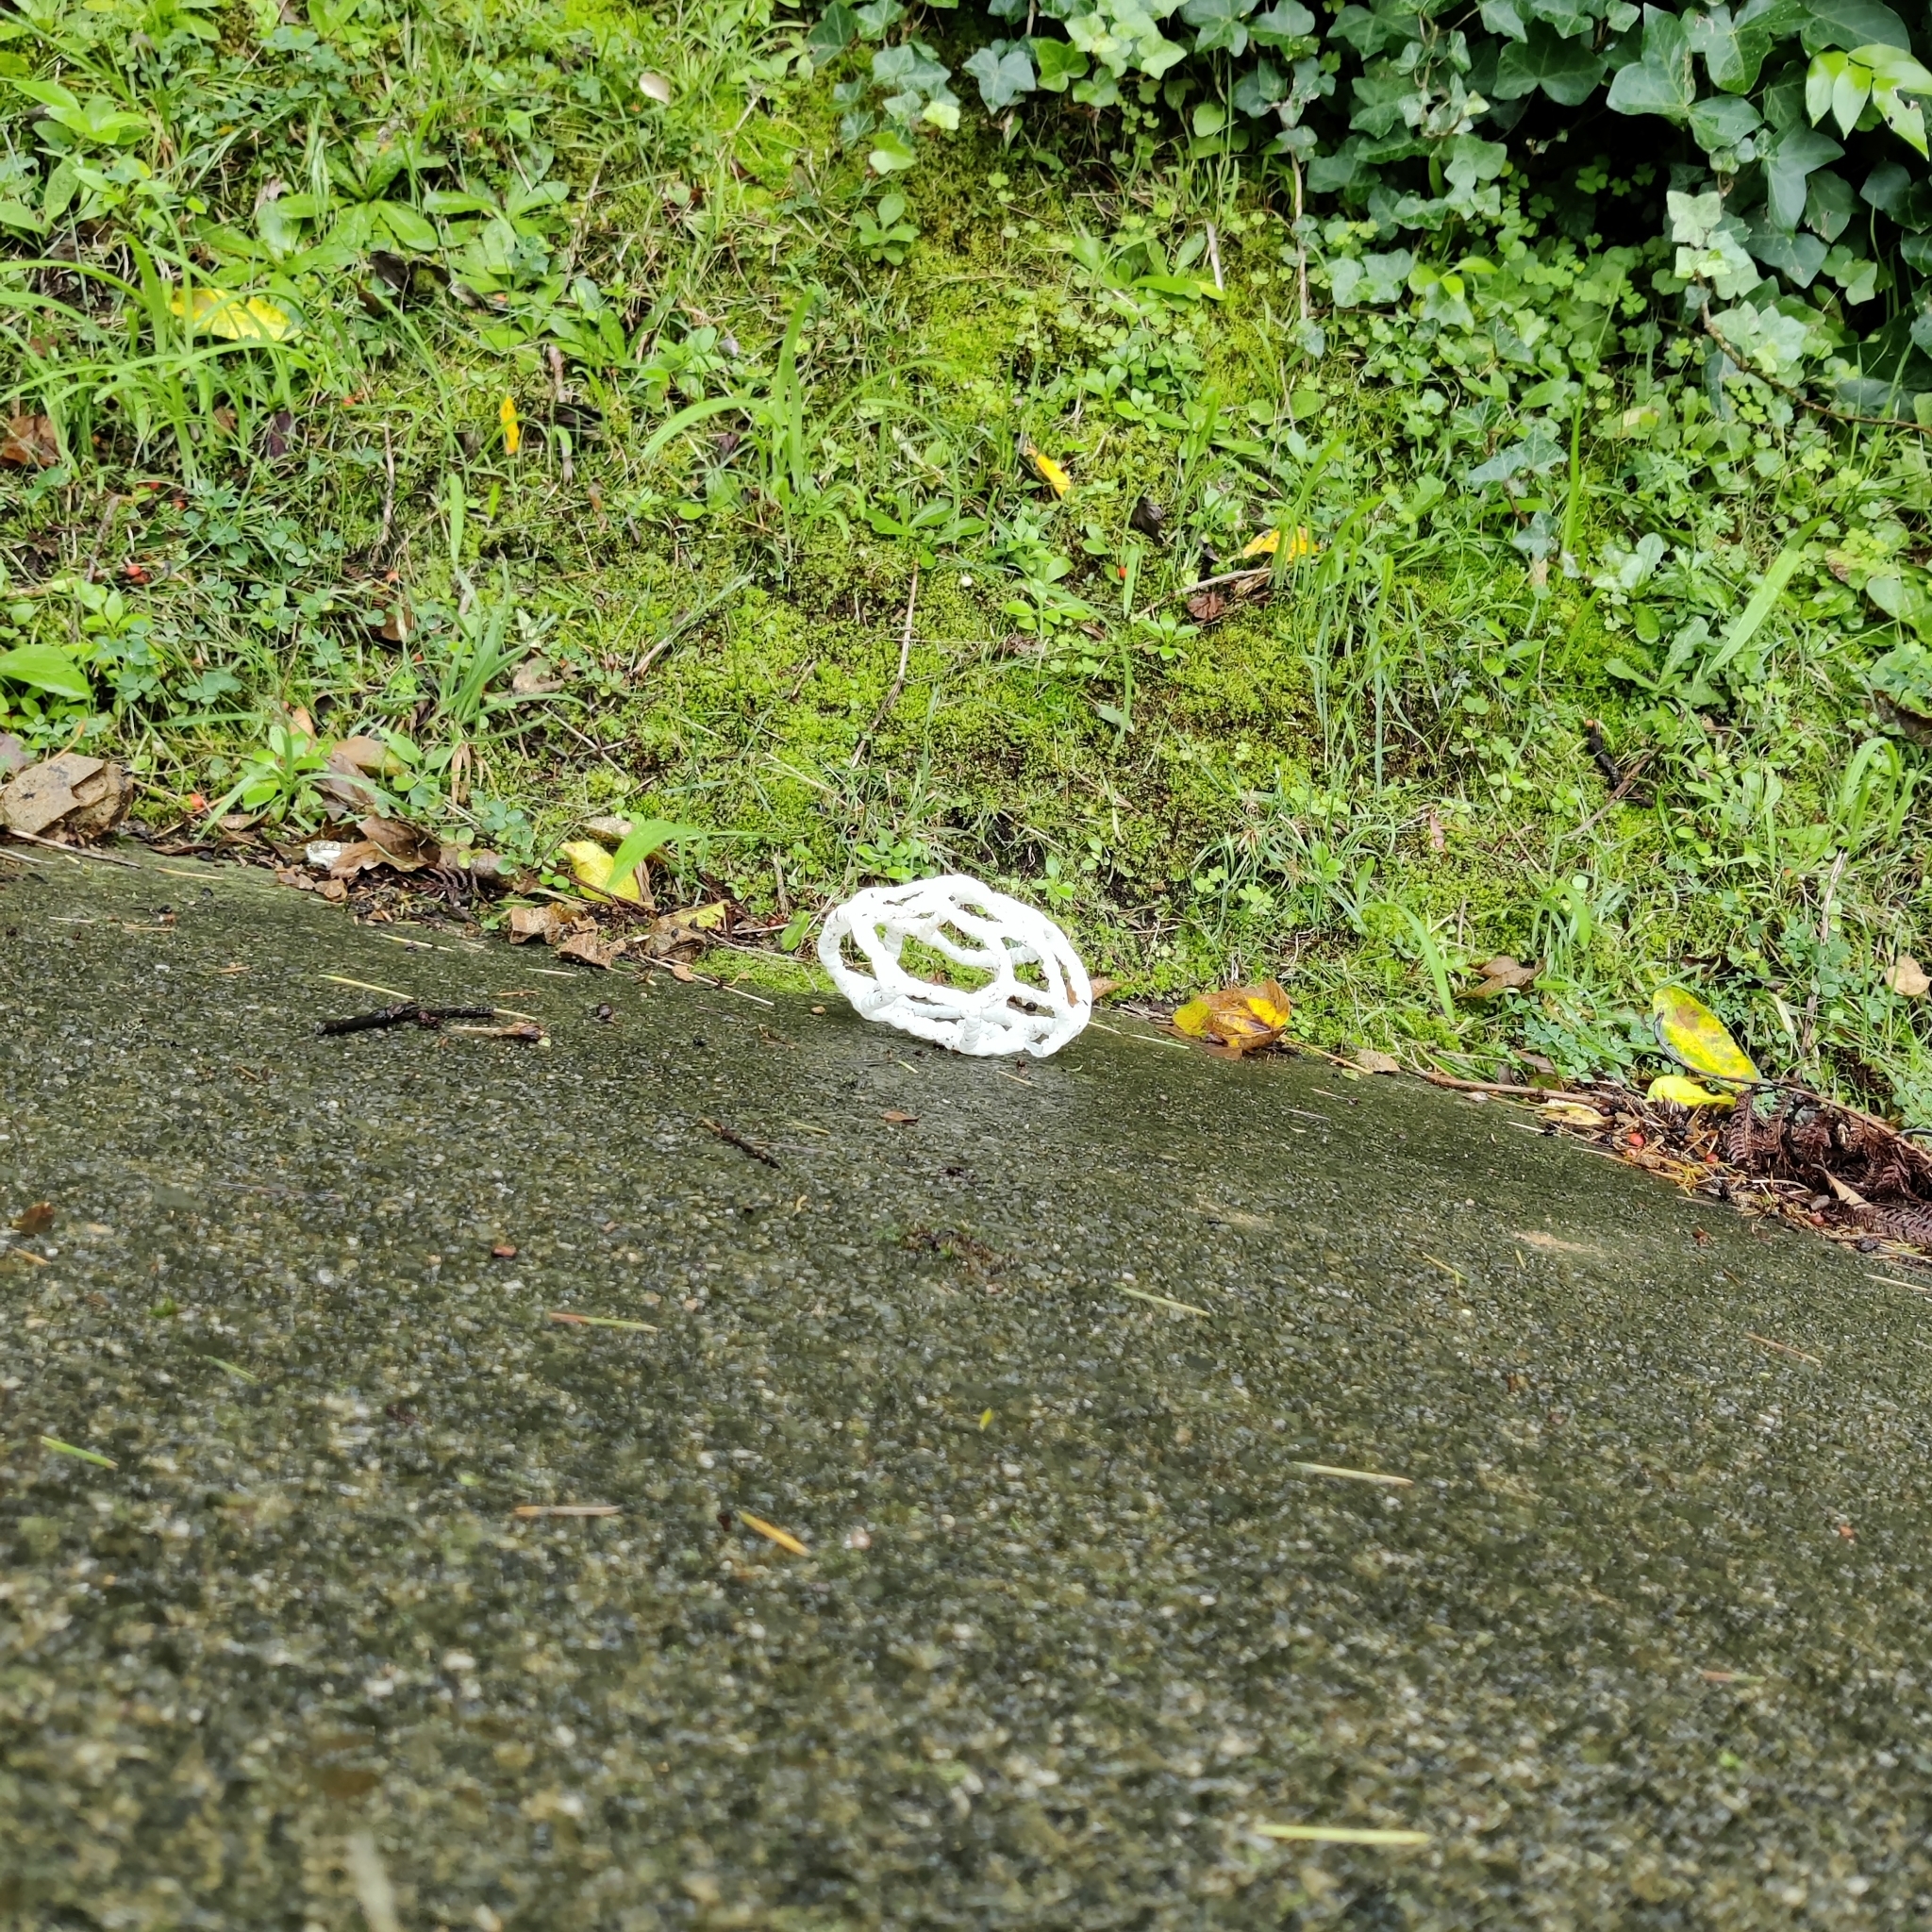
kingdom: Fungi
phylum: Basidiomycota
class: Agaricomycetes
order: Phallales
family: Phallaceae
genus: Ileodictyon
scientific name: Ileodictyon cibarium
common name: Basket fungus
